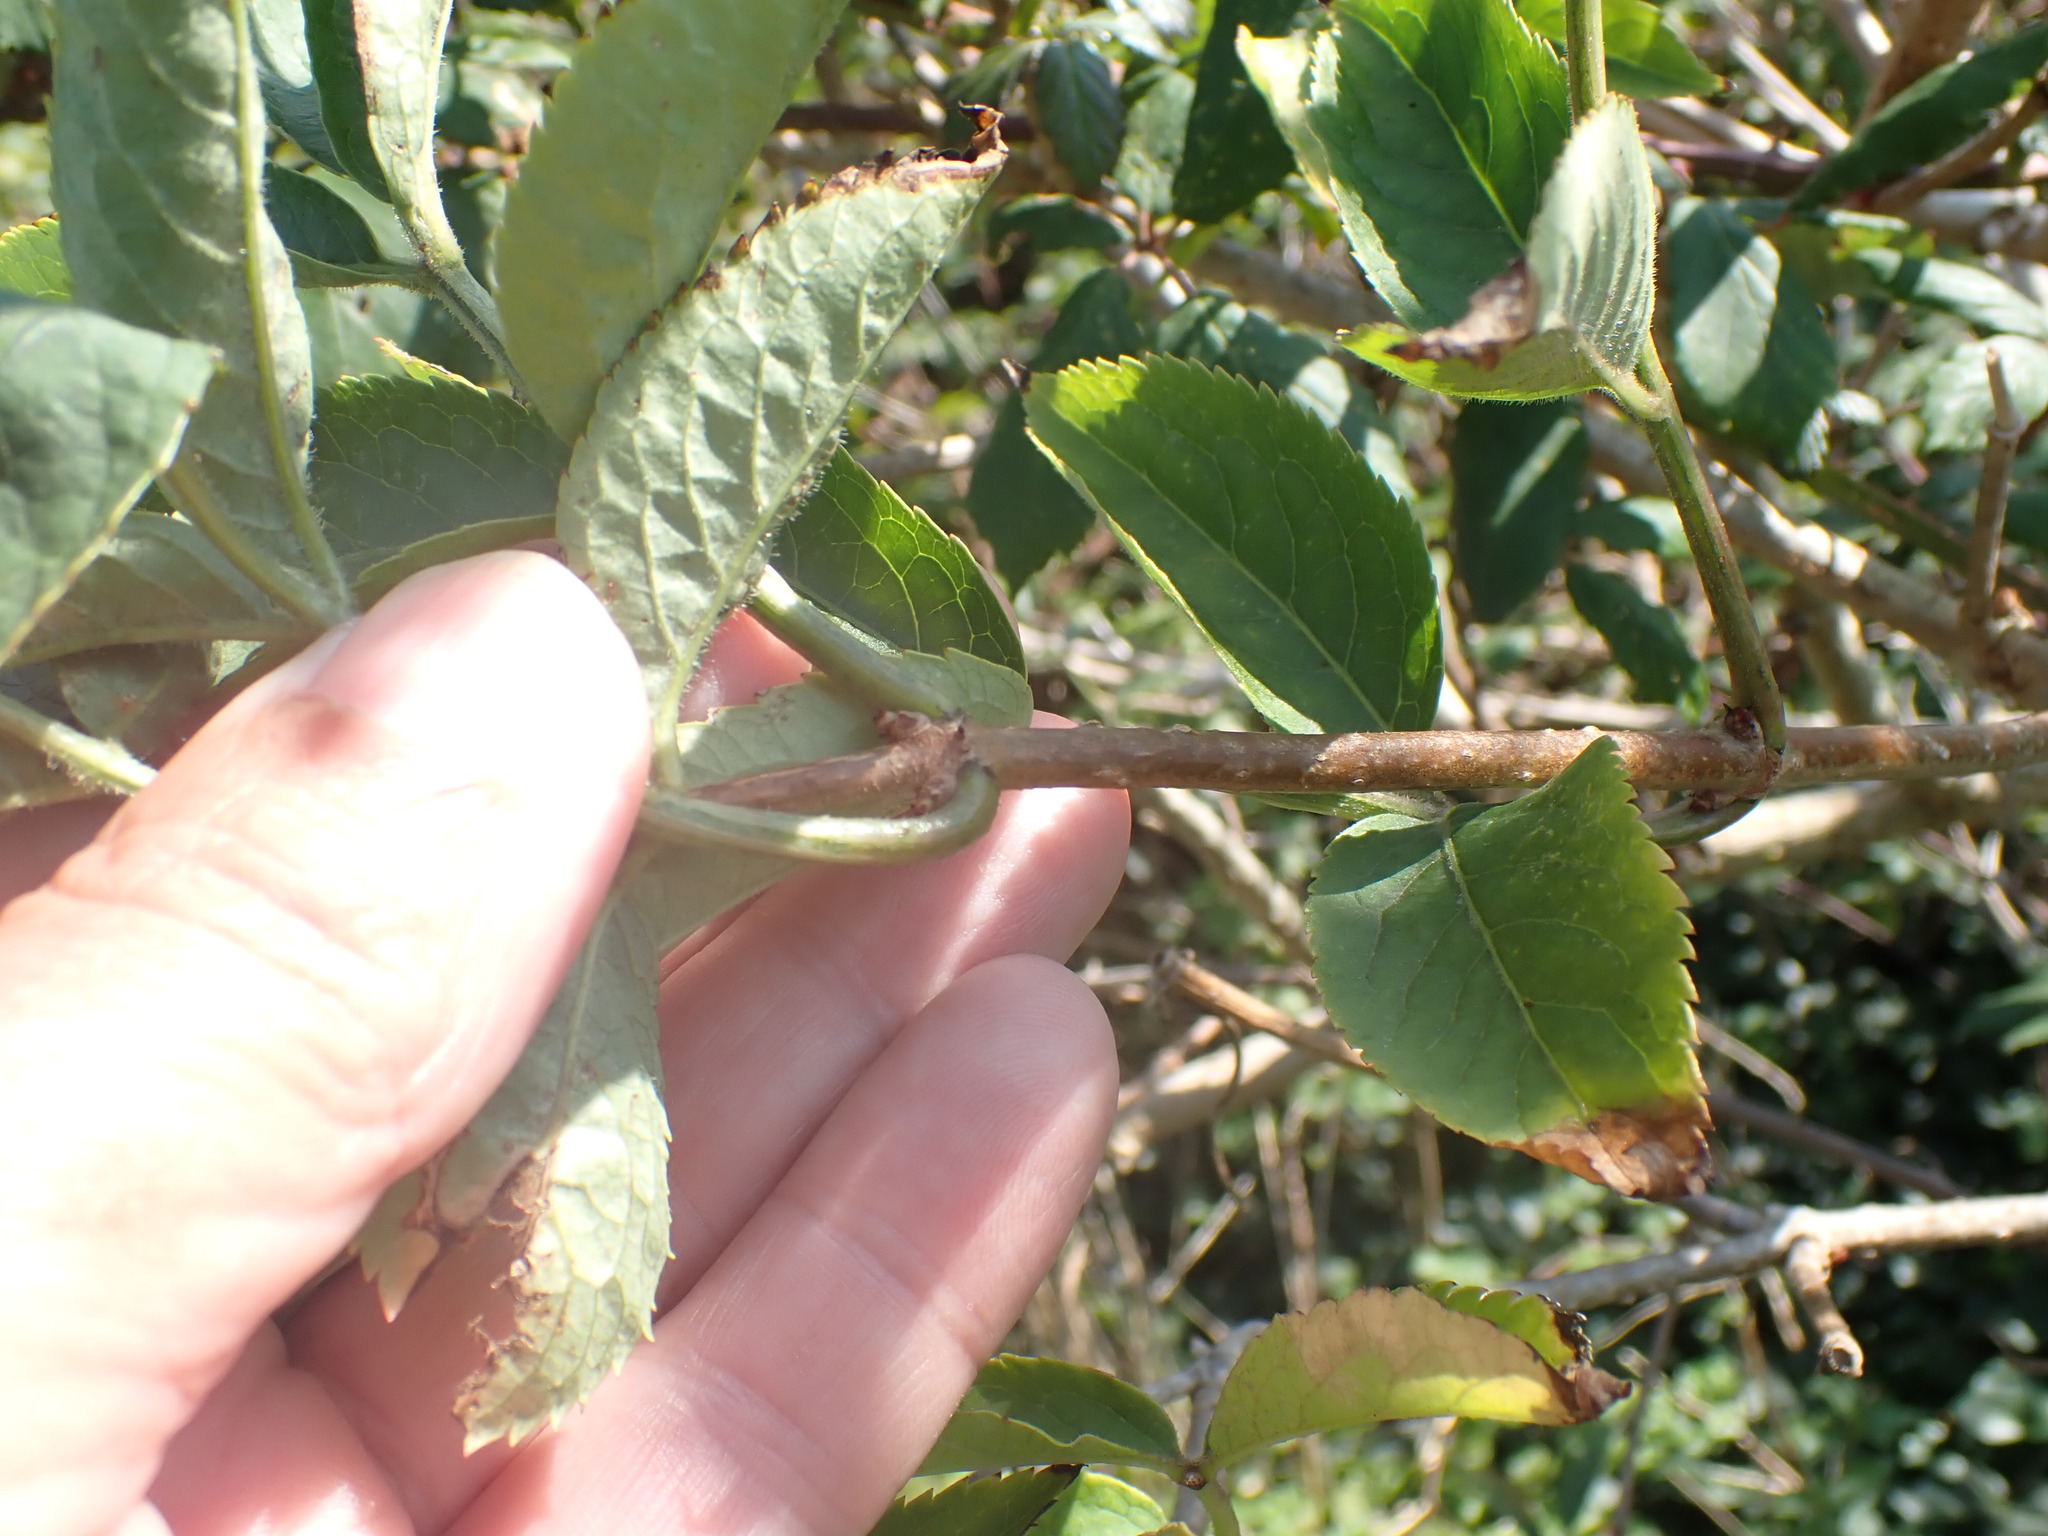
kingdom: Plantae
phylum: Tracheophyta
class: Magnoliopsida
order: Dipsacales
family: Viburnaceae
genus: Sambucus
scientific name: Sambucus nigra
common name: Elder
